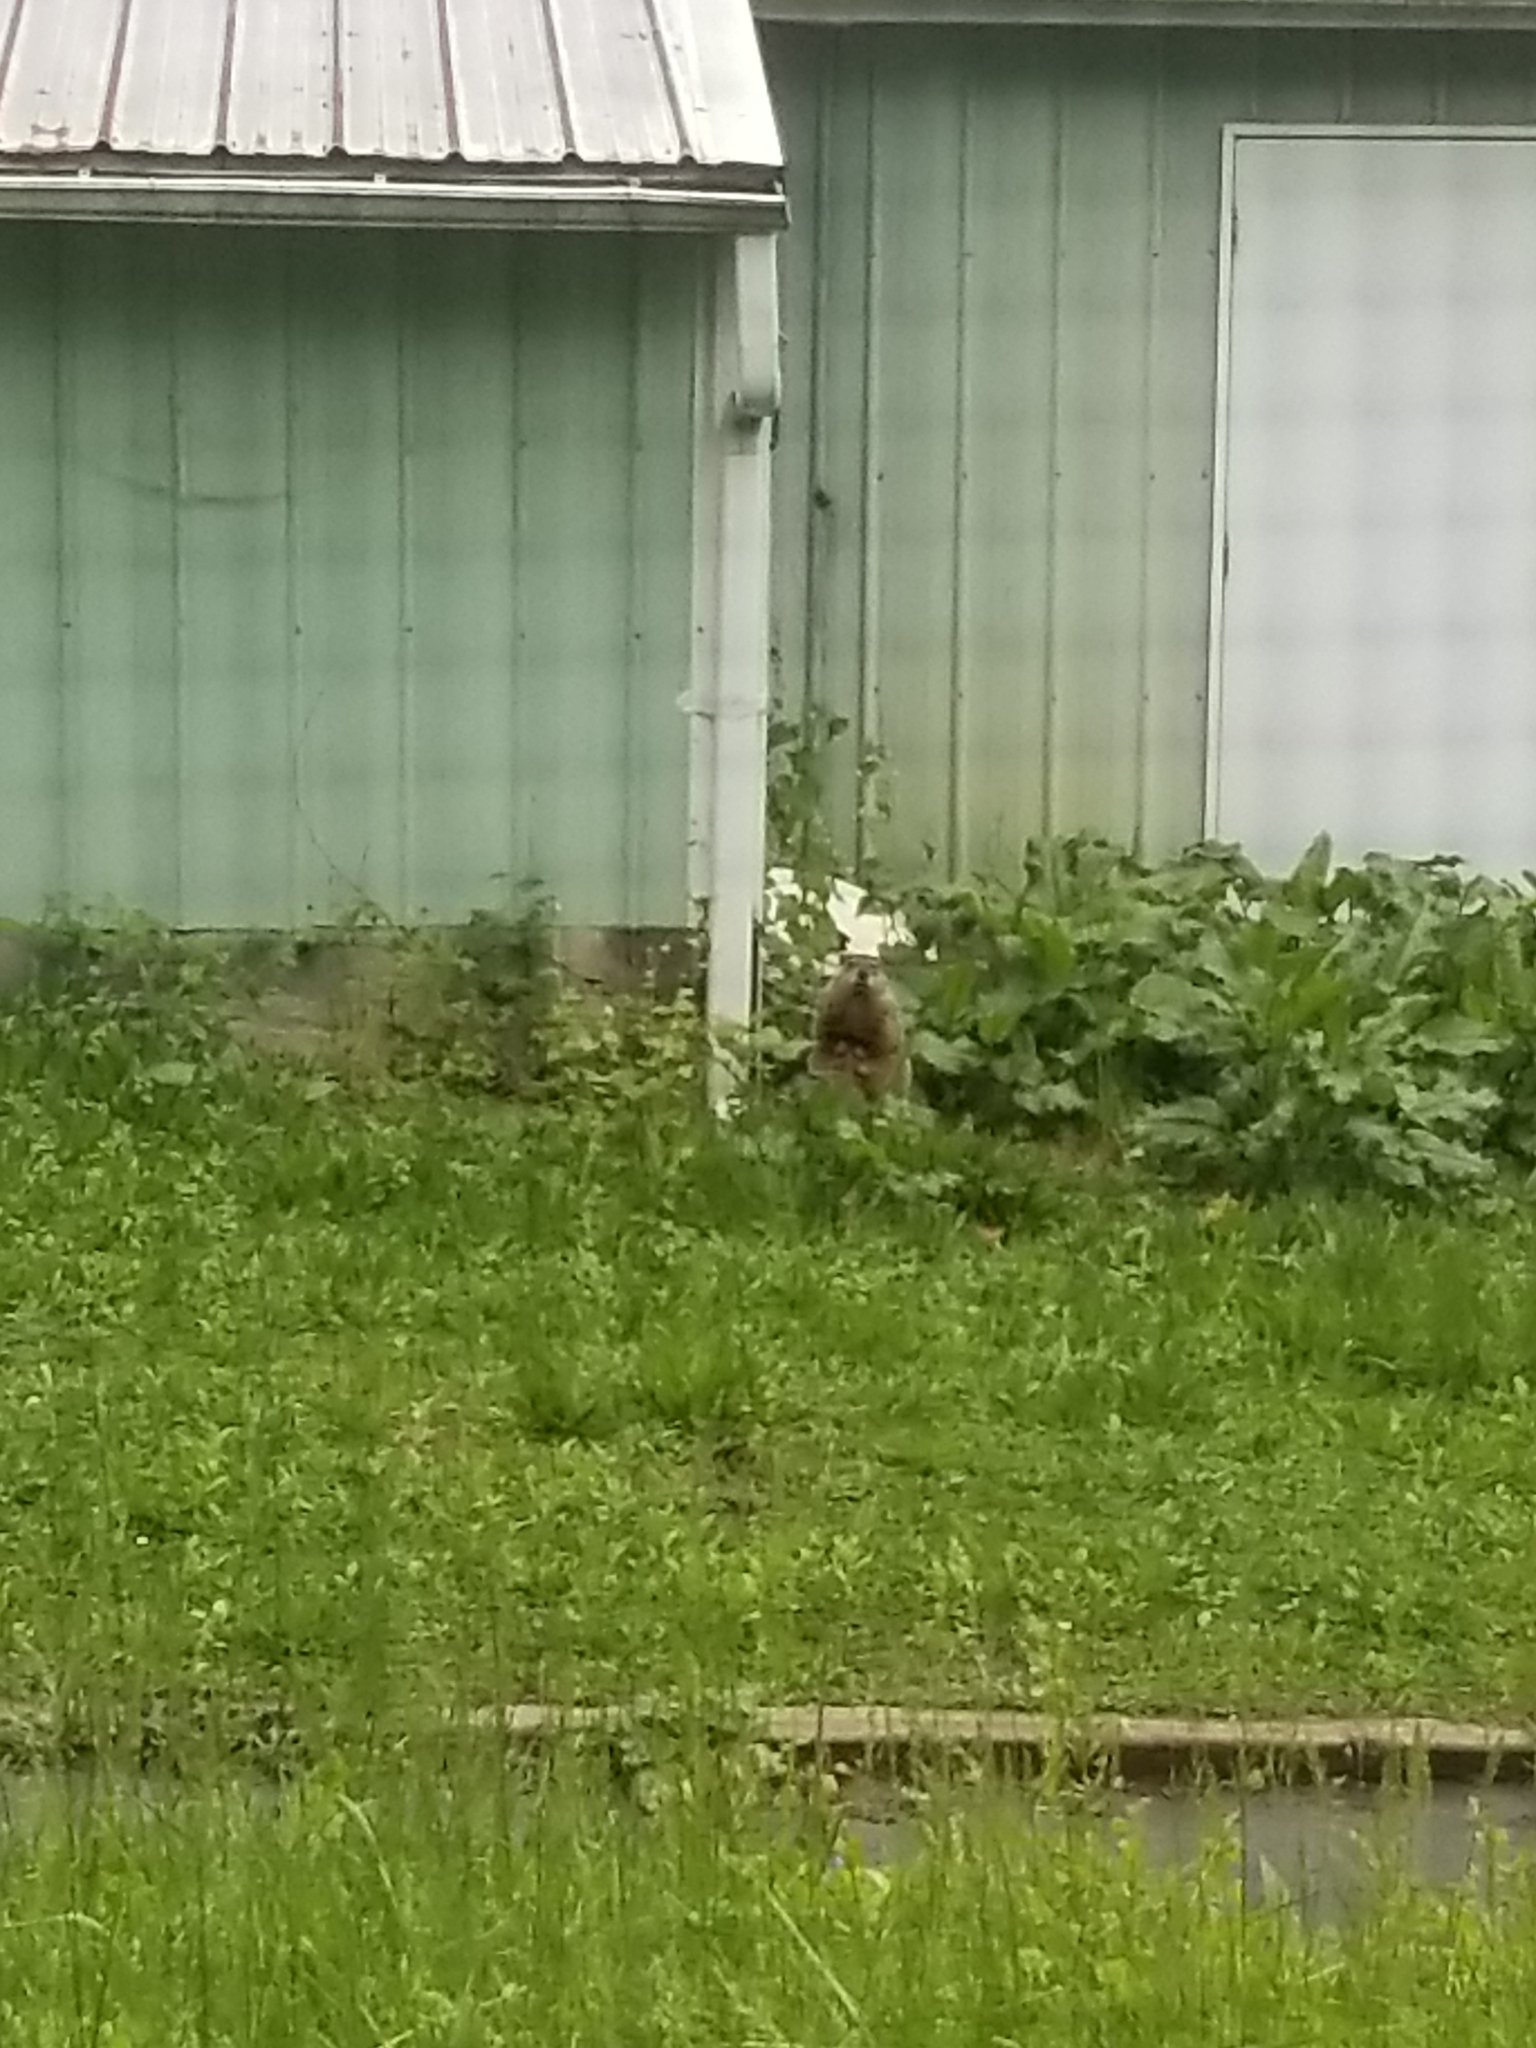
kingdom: Animalia
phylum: Chordata
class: Mammalia
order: Rodentia
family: Sciuridae
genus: Marmota
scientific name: Marmota monax
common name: Groundhog
